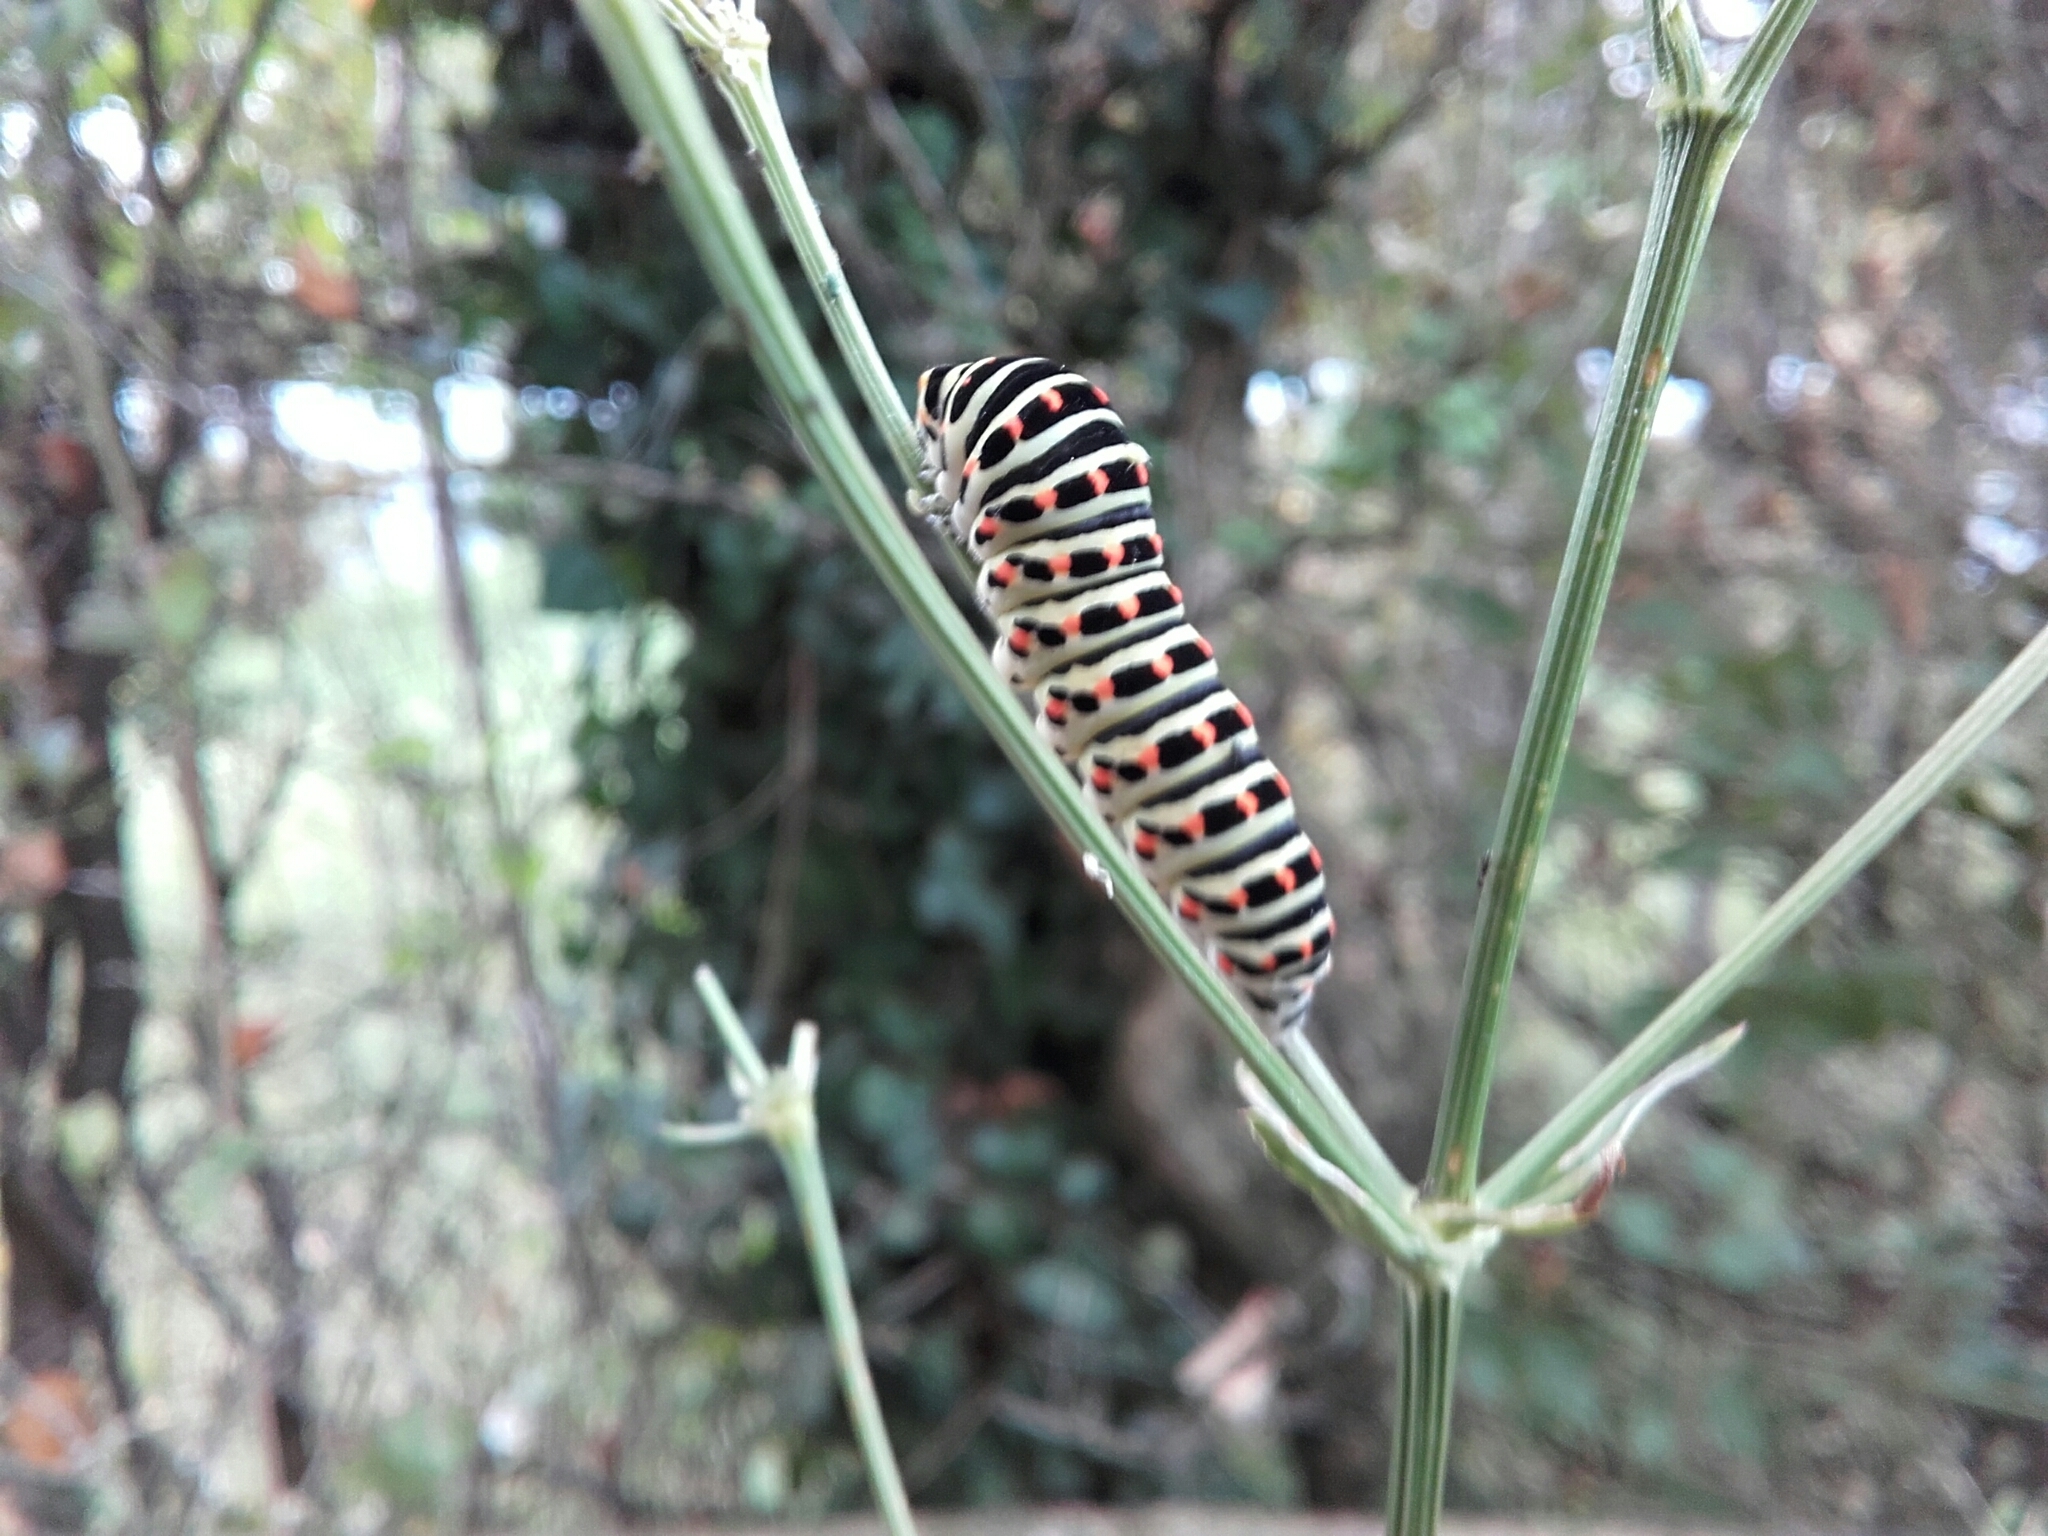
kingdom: Animalia
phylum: Arthropoda
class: Insecta
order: Lepidoptera
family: Papilionidae
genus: Papilio
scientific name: Papilio machaon
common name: Swallowtail
